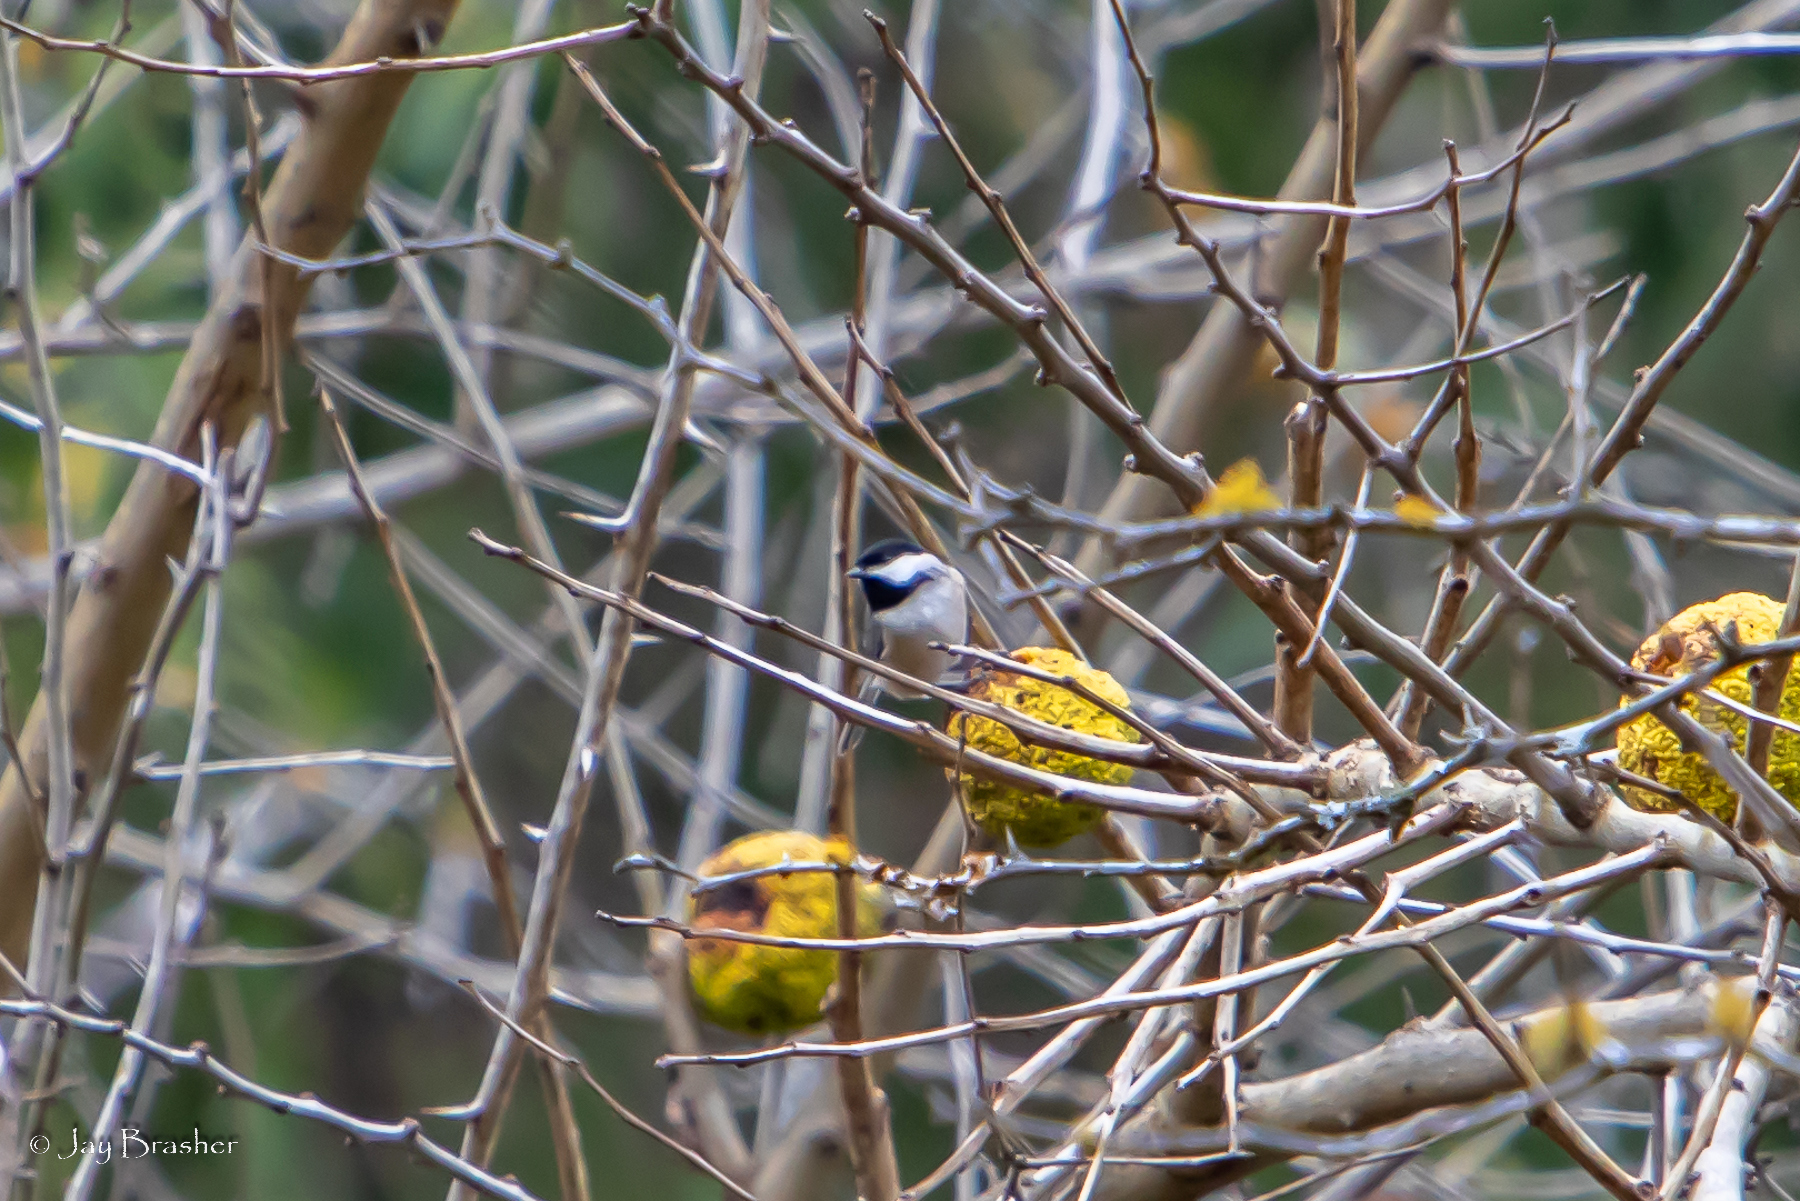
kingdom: Animalia
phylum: Chordata
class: Aves
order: Passeriformes
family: Paridae
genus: Poecile
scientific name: Poecile carolinensis
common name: Carolina chickadee
